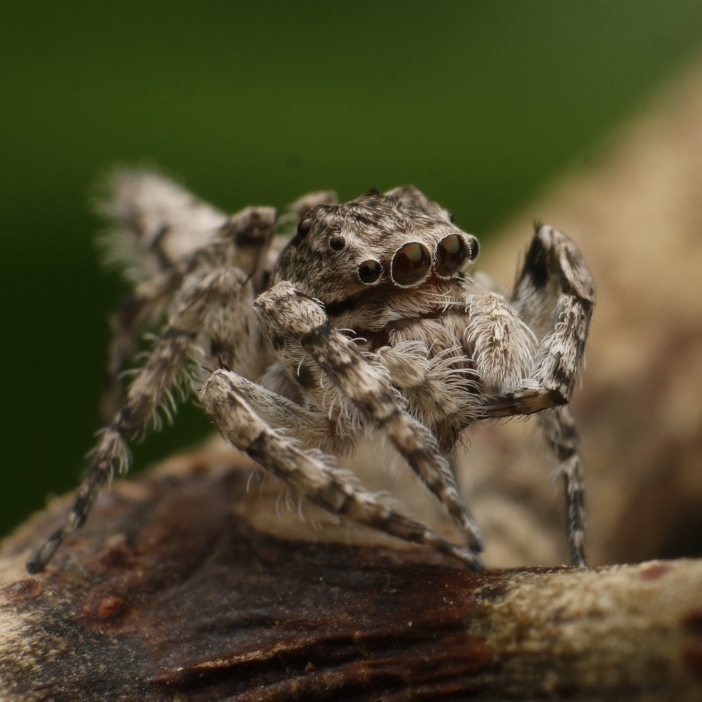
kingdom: Animalia
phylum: Arthropoda
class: Arachnida
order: Araneae
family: Salticidae
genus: Cocalus
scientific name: Cocalus lacinia
